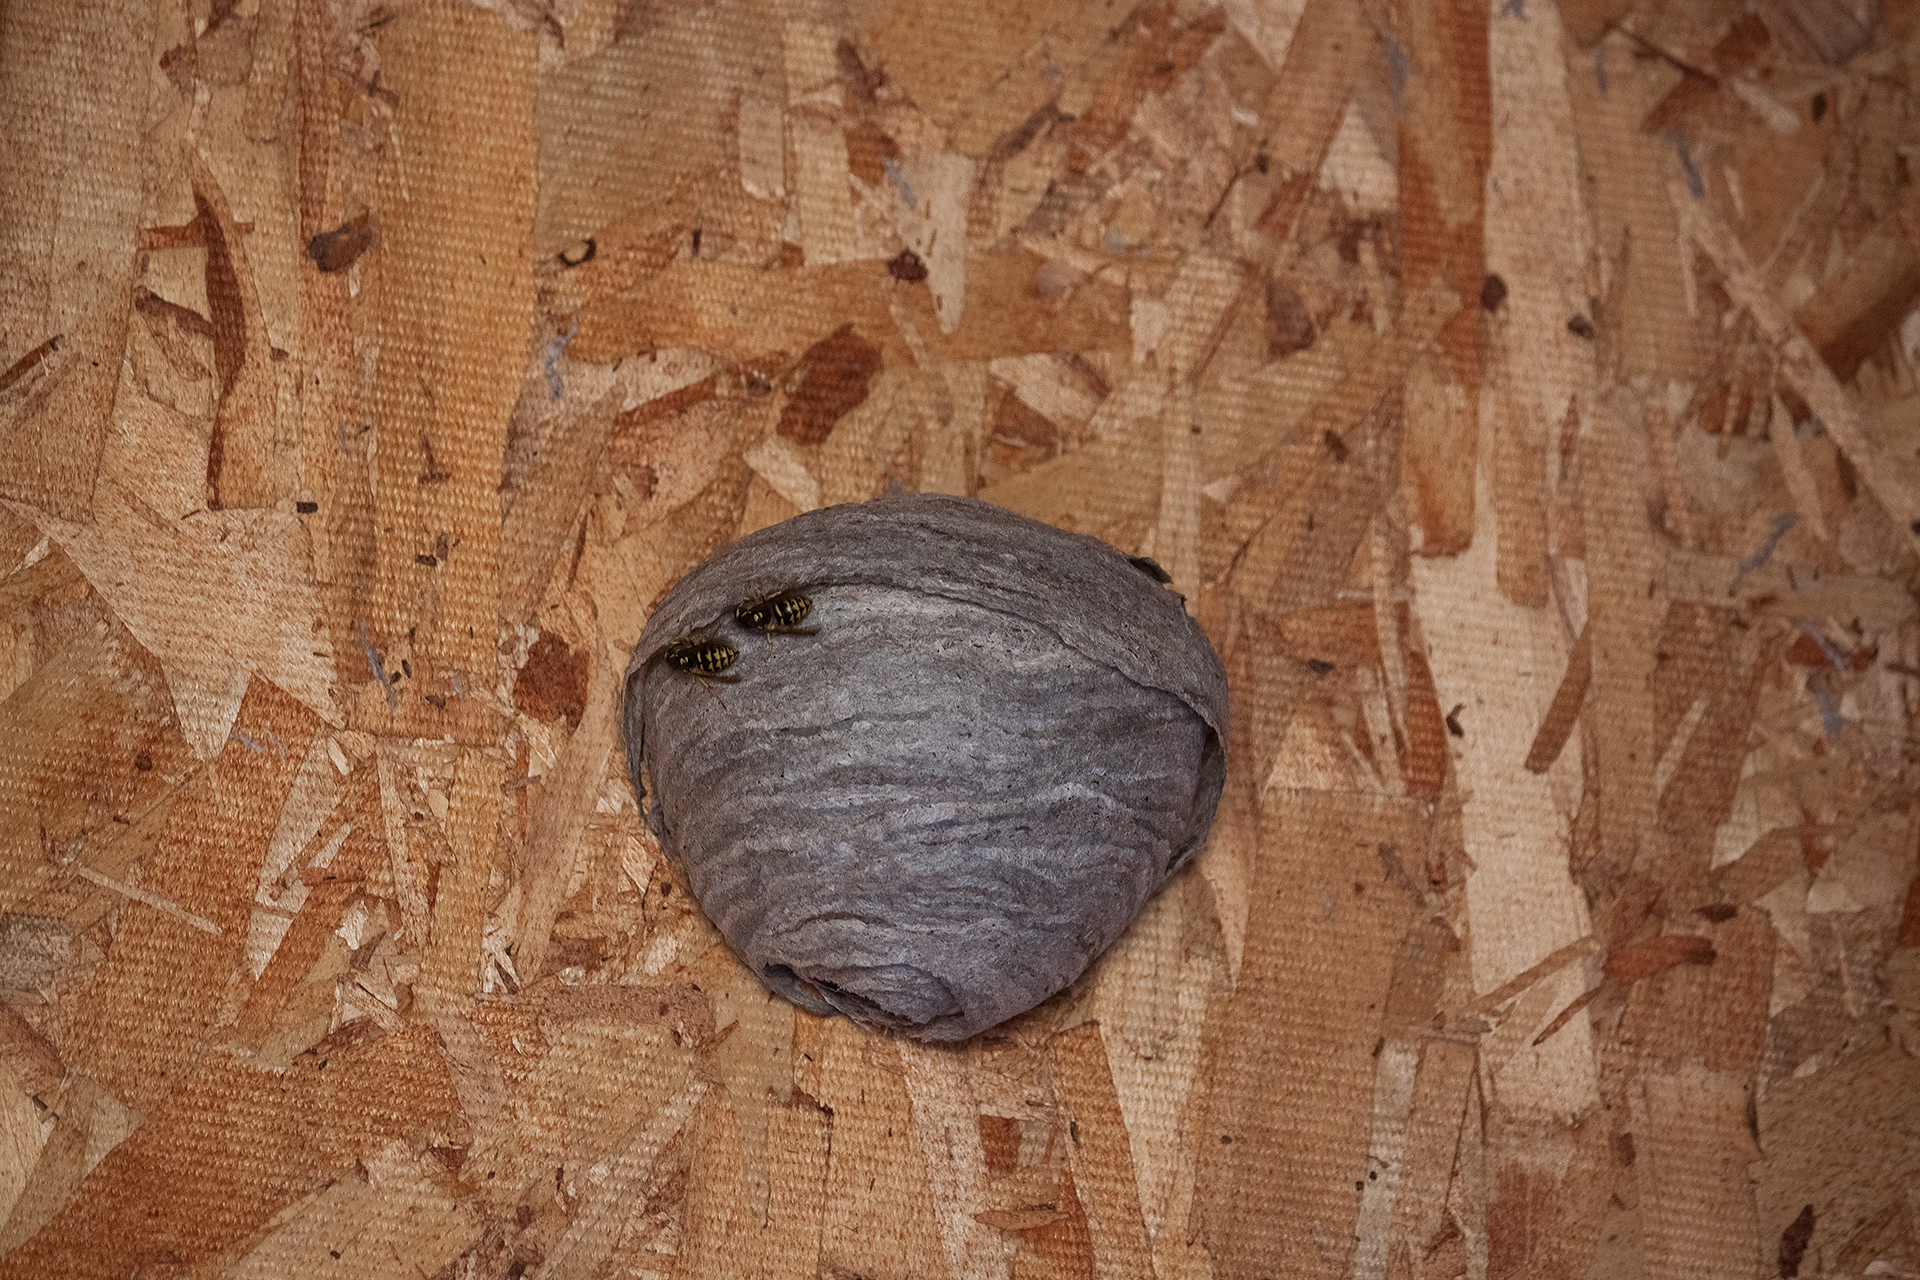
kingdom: Animalia
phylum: Arthropoda
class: Insecta
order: Hymenoptera
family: Vespidae
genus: Dolichovespula
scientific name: Dolichovespula arenaria
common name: Aerial yellowjacket
